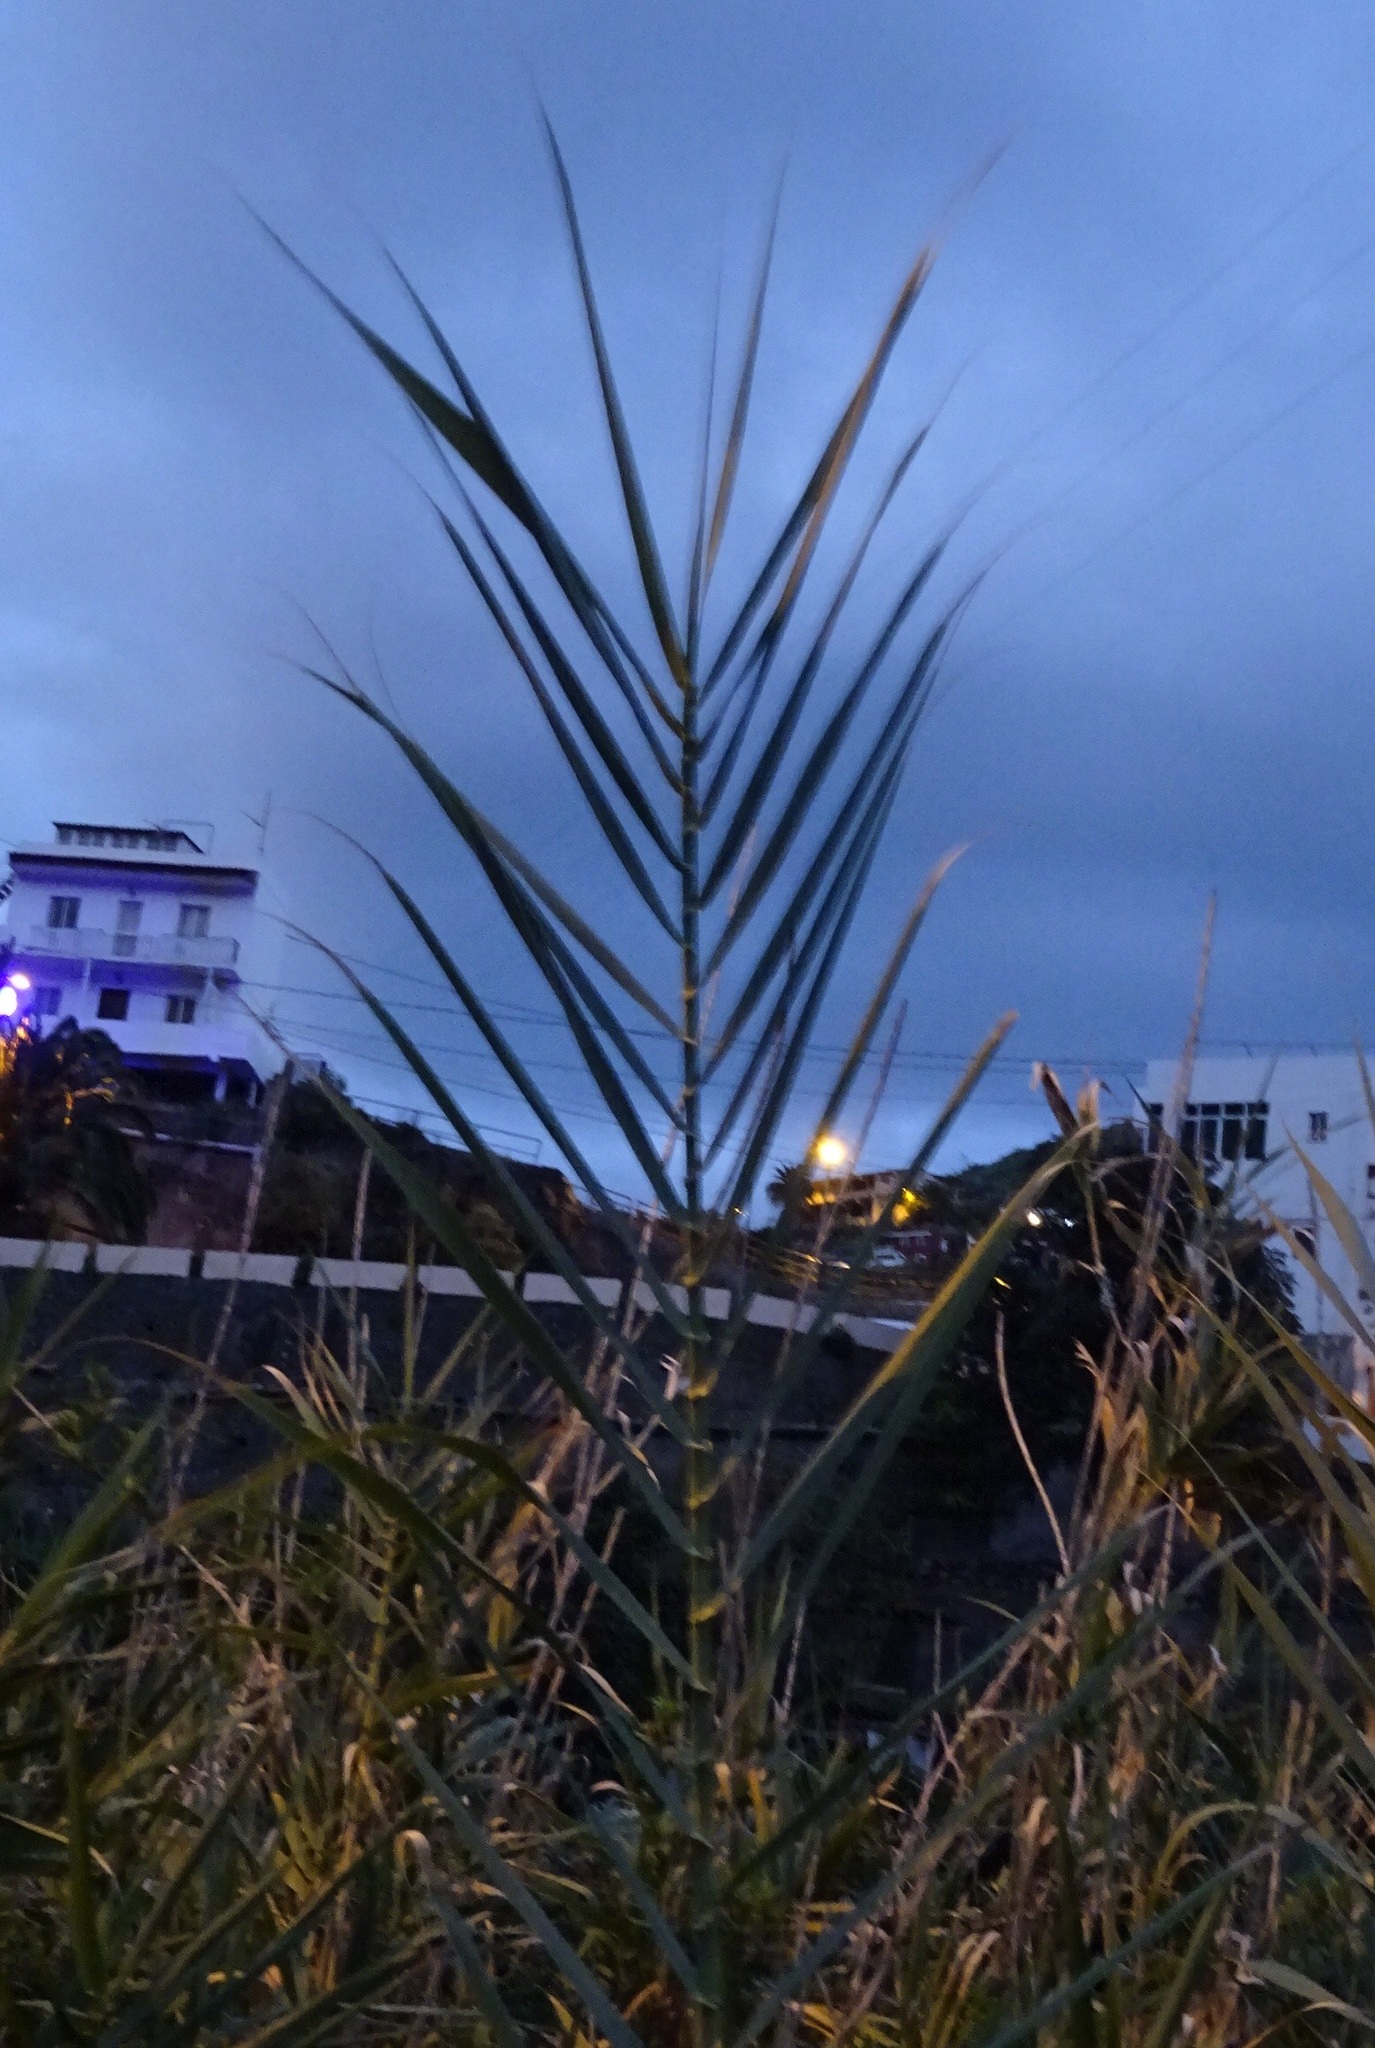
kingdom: Plantae
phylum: Tracheophyta
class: Liliopsida
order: Poales
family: Poaceae
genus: Arundo
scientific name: Arundo donax
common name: Giant reed
